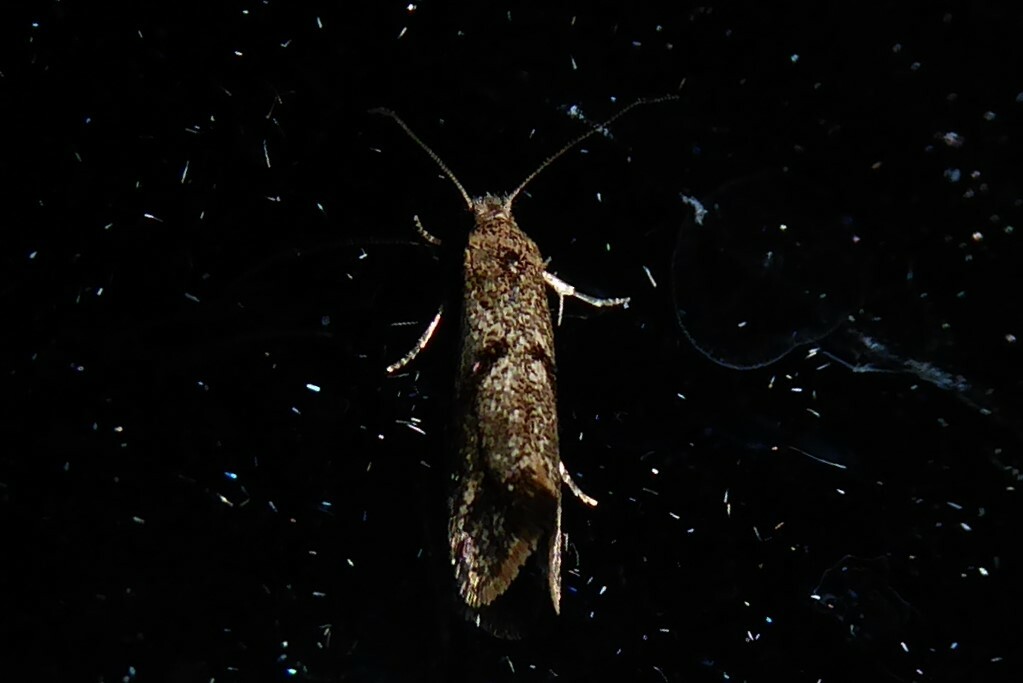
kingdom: Animalia
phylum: Arthropoda
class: Insecta
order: Lepidoptera
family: Tineidae
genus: Tinea
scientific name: Tinea mochlota
